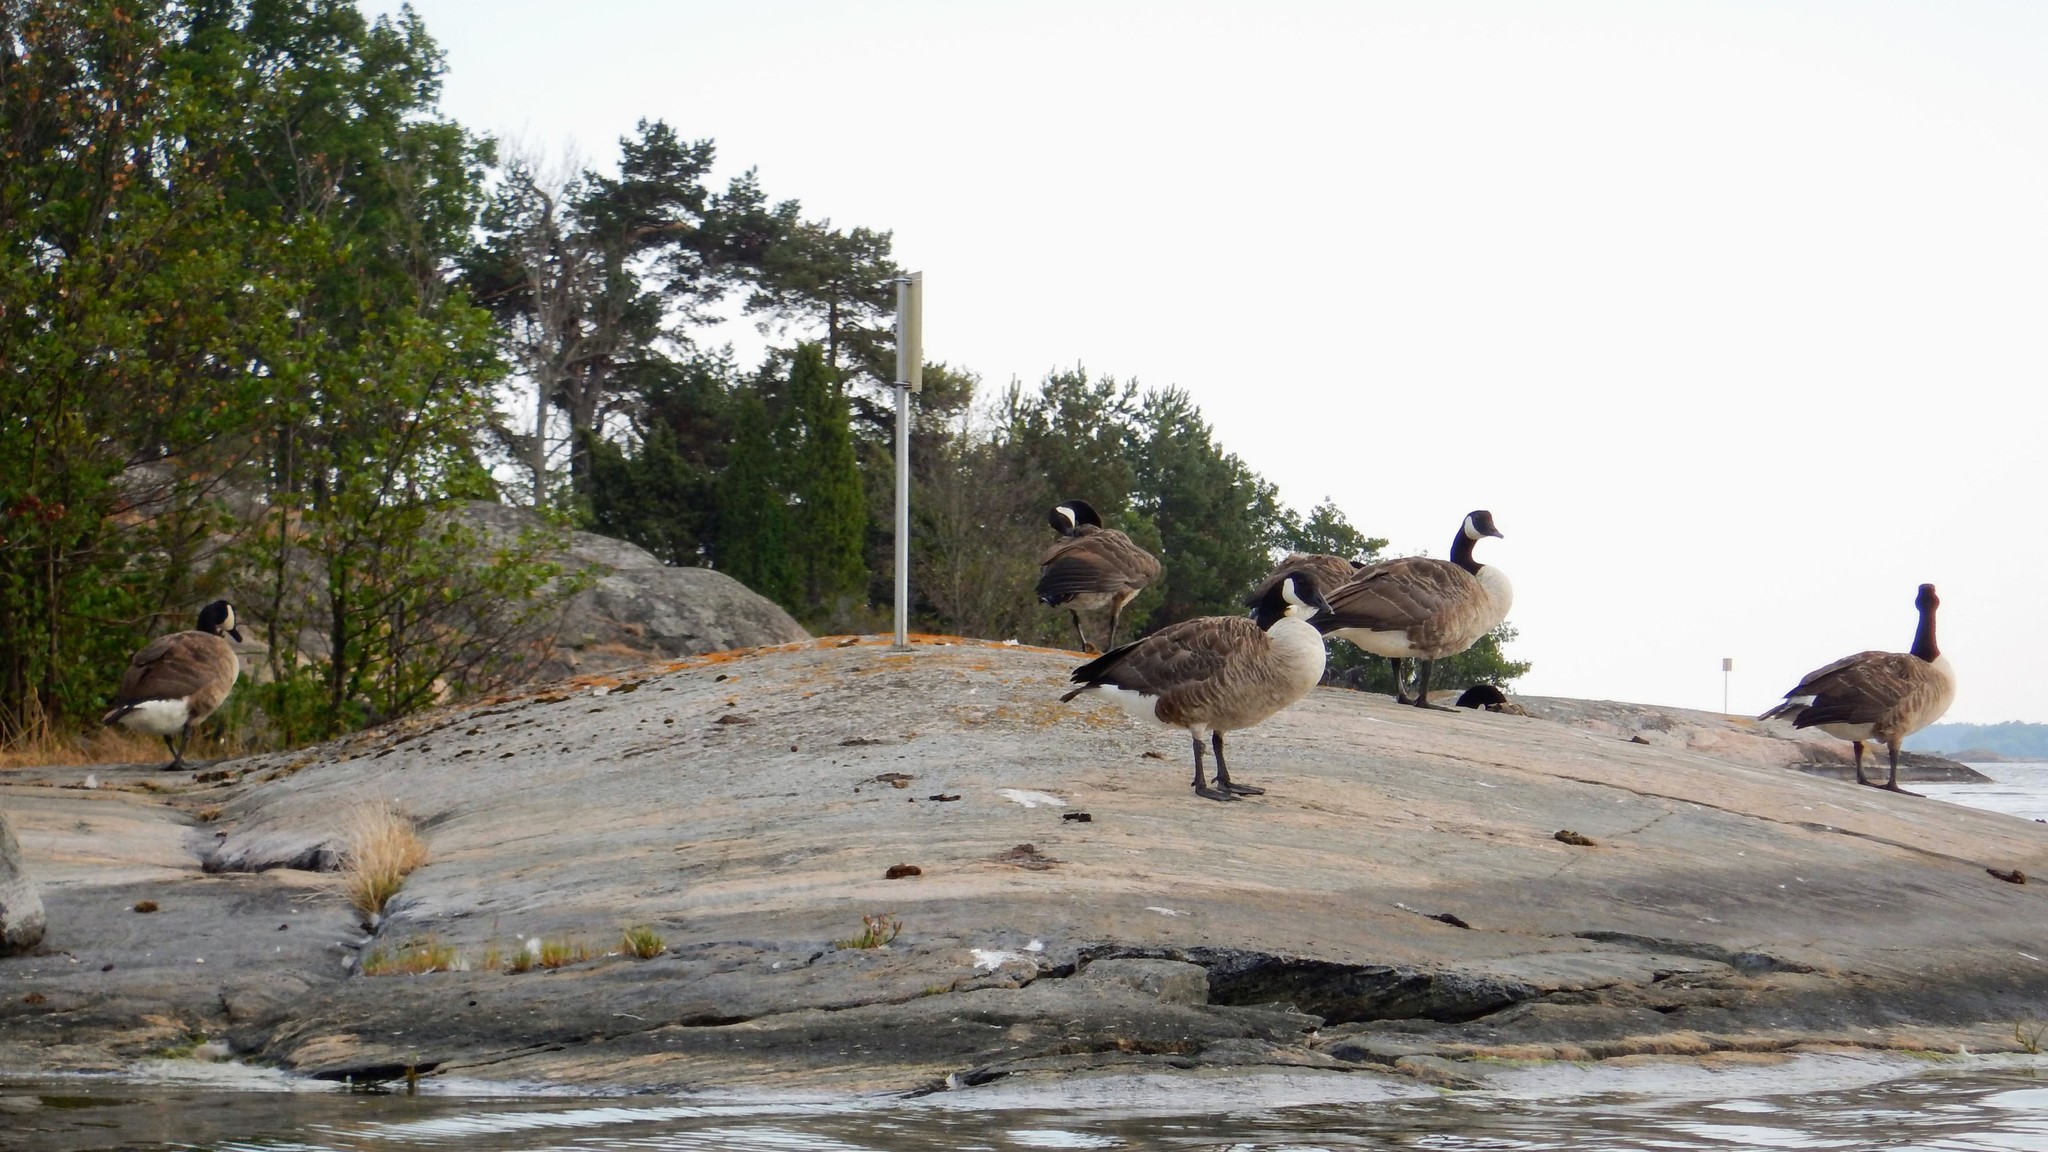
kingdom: Animalia
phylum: Chordata
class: Aves
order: Anseriformes
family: Anatidae
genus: Branta
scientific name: Branta canadensis
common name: Canada goose
